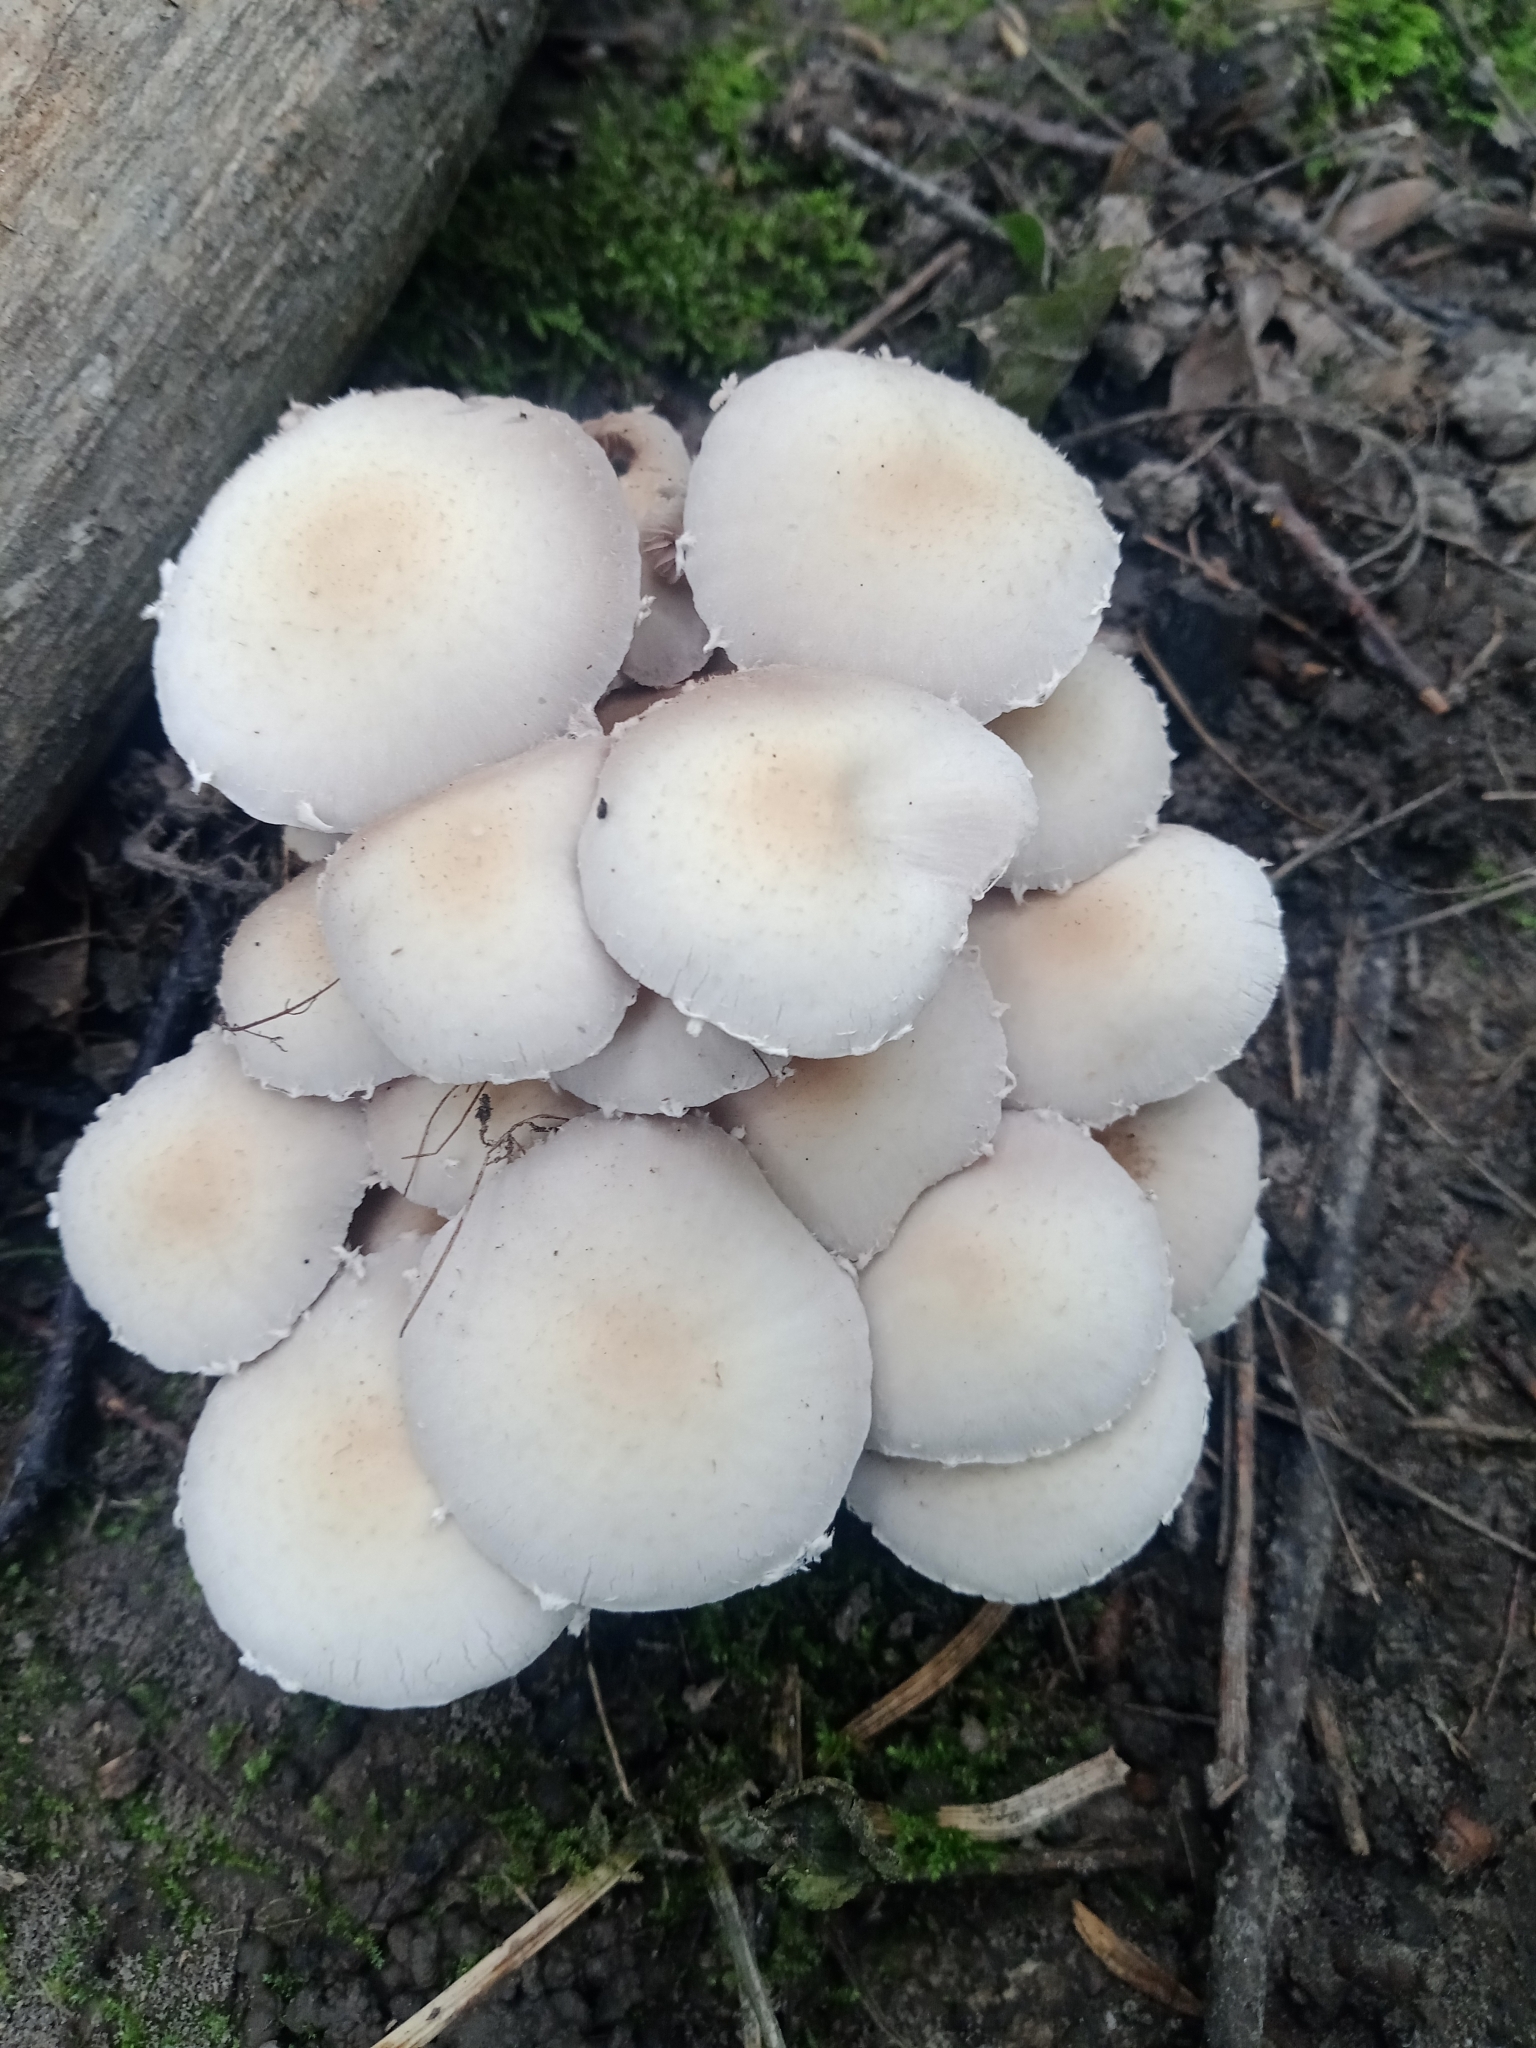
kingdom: Fungi
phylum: Basidiomycota
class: Agaricomycetes
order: Agaricales
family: Psathyrellaceae
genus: Candolleomyces
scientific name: Candolleomyces candolleanus
